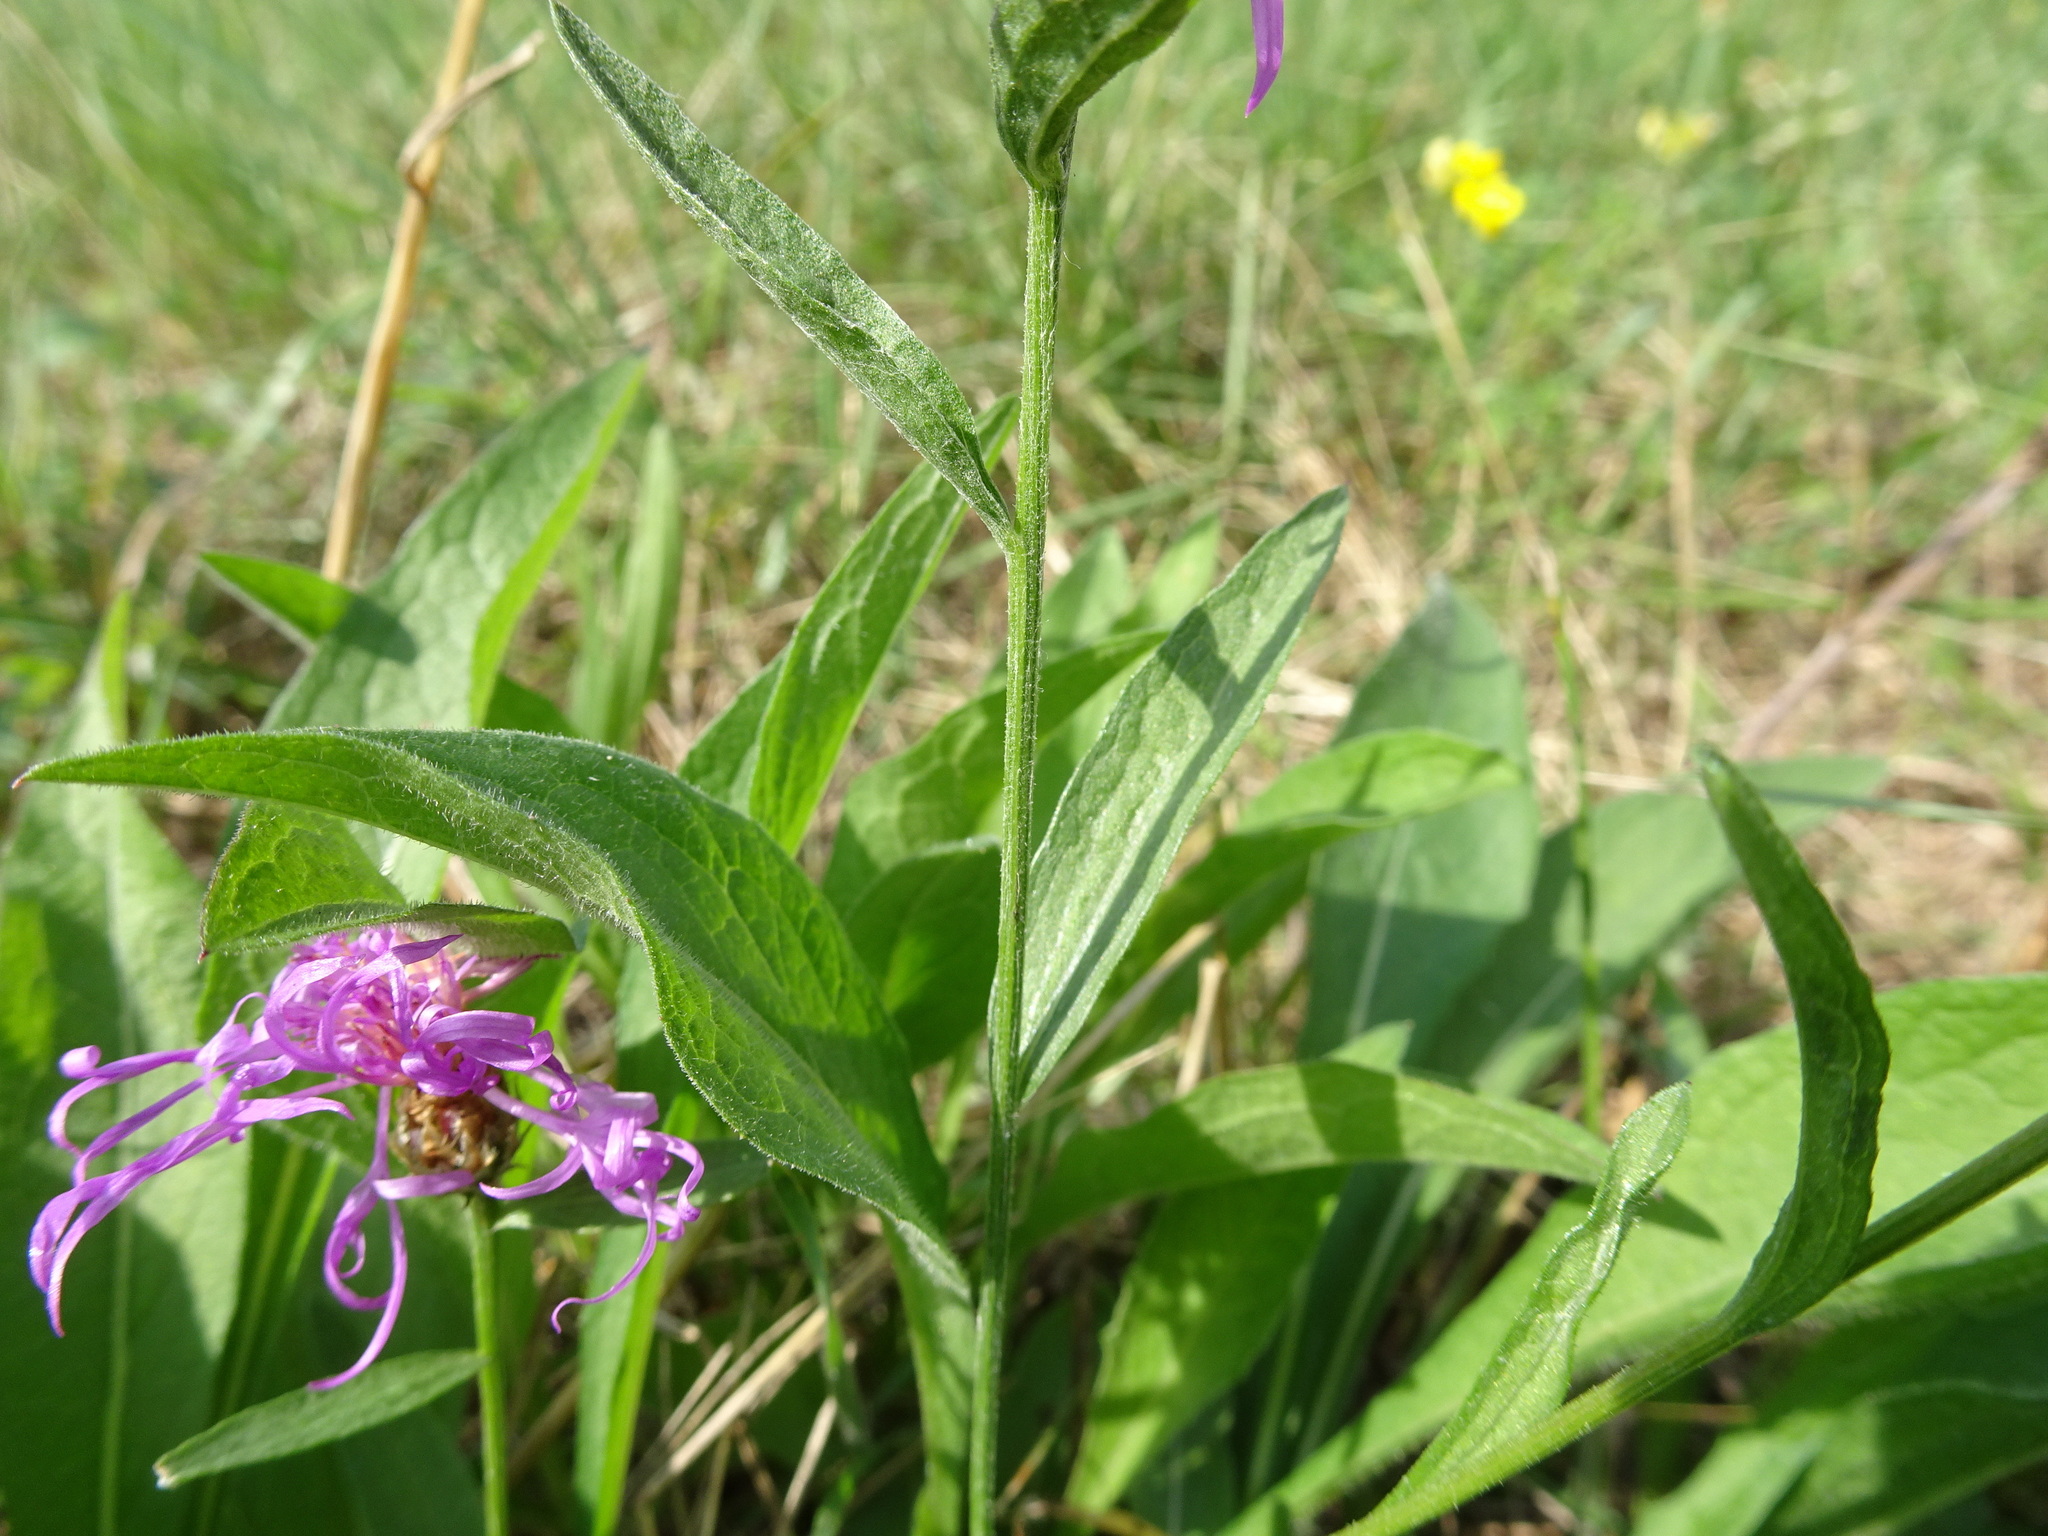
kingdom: Plantae
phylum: Tracheophyta
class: Magnoliopsida
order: Asterales
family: Asteraceae
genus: Centaurea
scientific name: Centaurea jacea
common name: Brown knapweed
